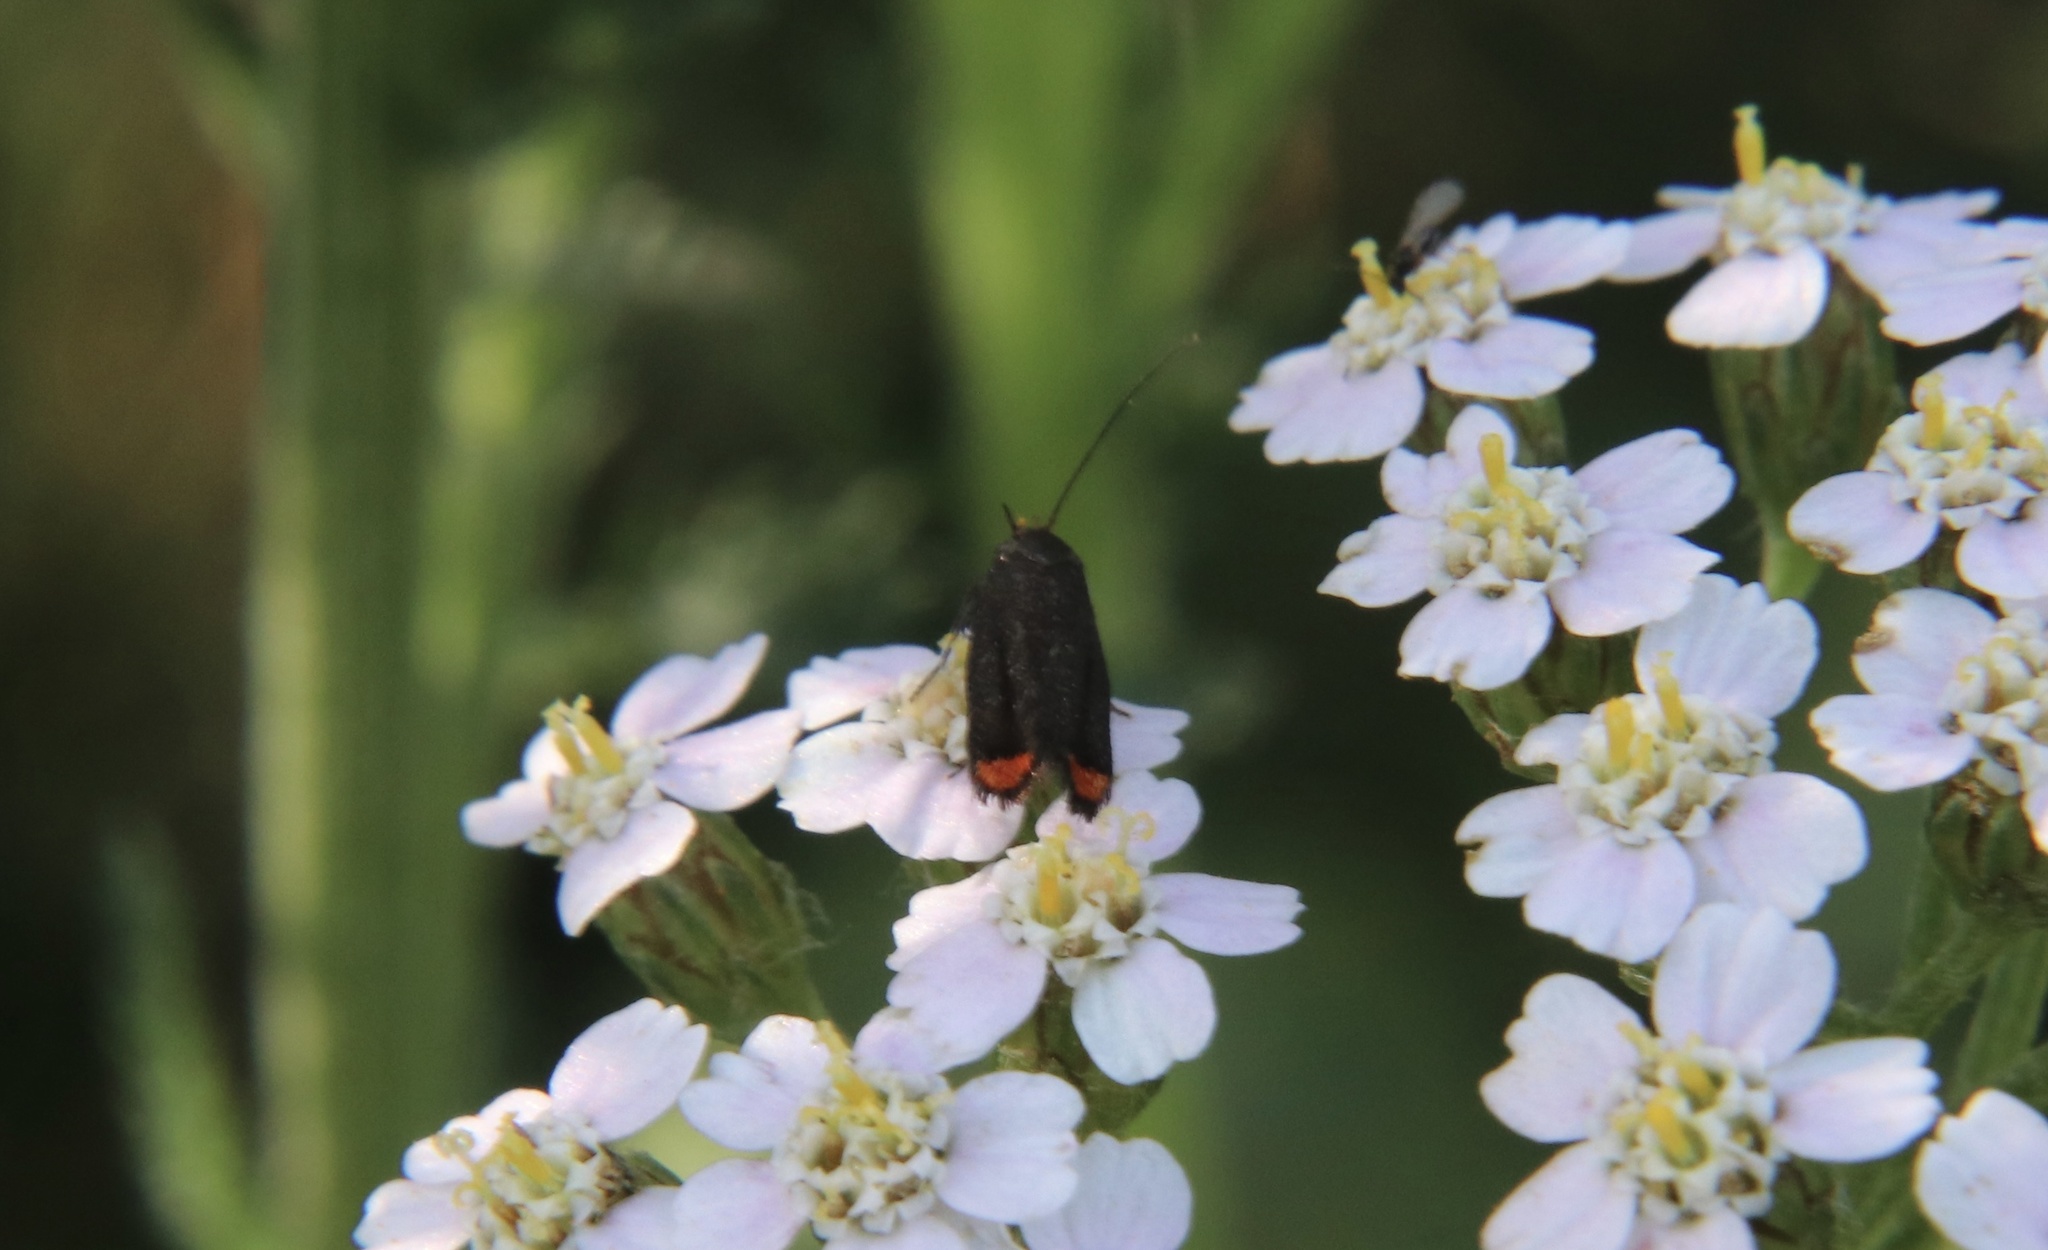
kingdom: Animalia
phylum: Arthropoda
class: Insecta
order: Lepidoptera
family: Oecophoridae
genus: Lelita
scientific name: Lelita acmaea
